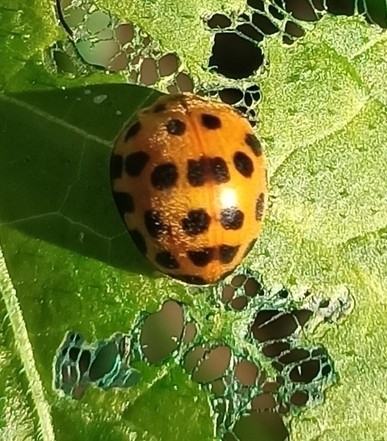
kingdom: Animalia
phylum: Arthropoda
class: Insecta
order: Coleoptera
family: Coccinellidae
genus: Henosepilachna
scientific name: Henosepilachna vigintioctopunctata
